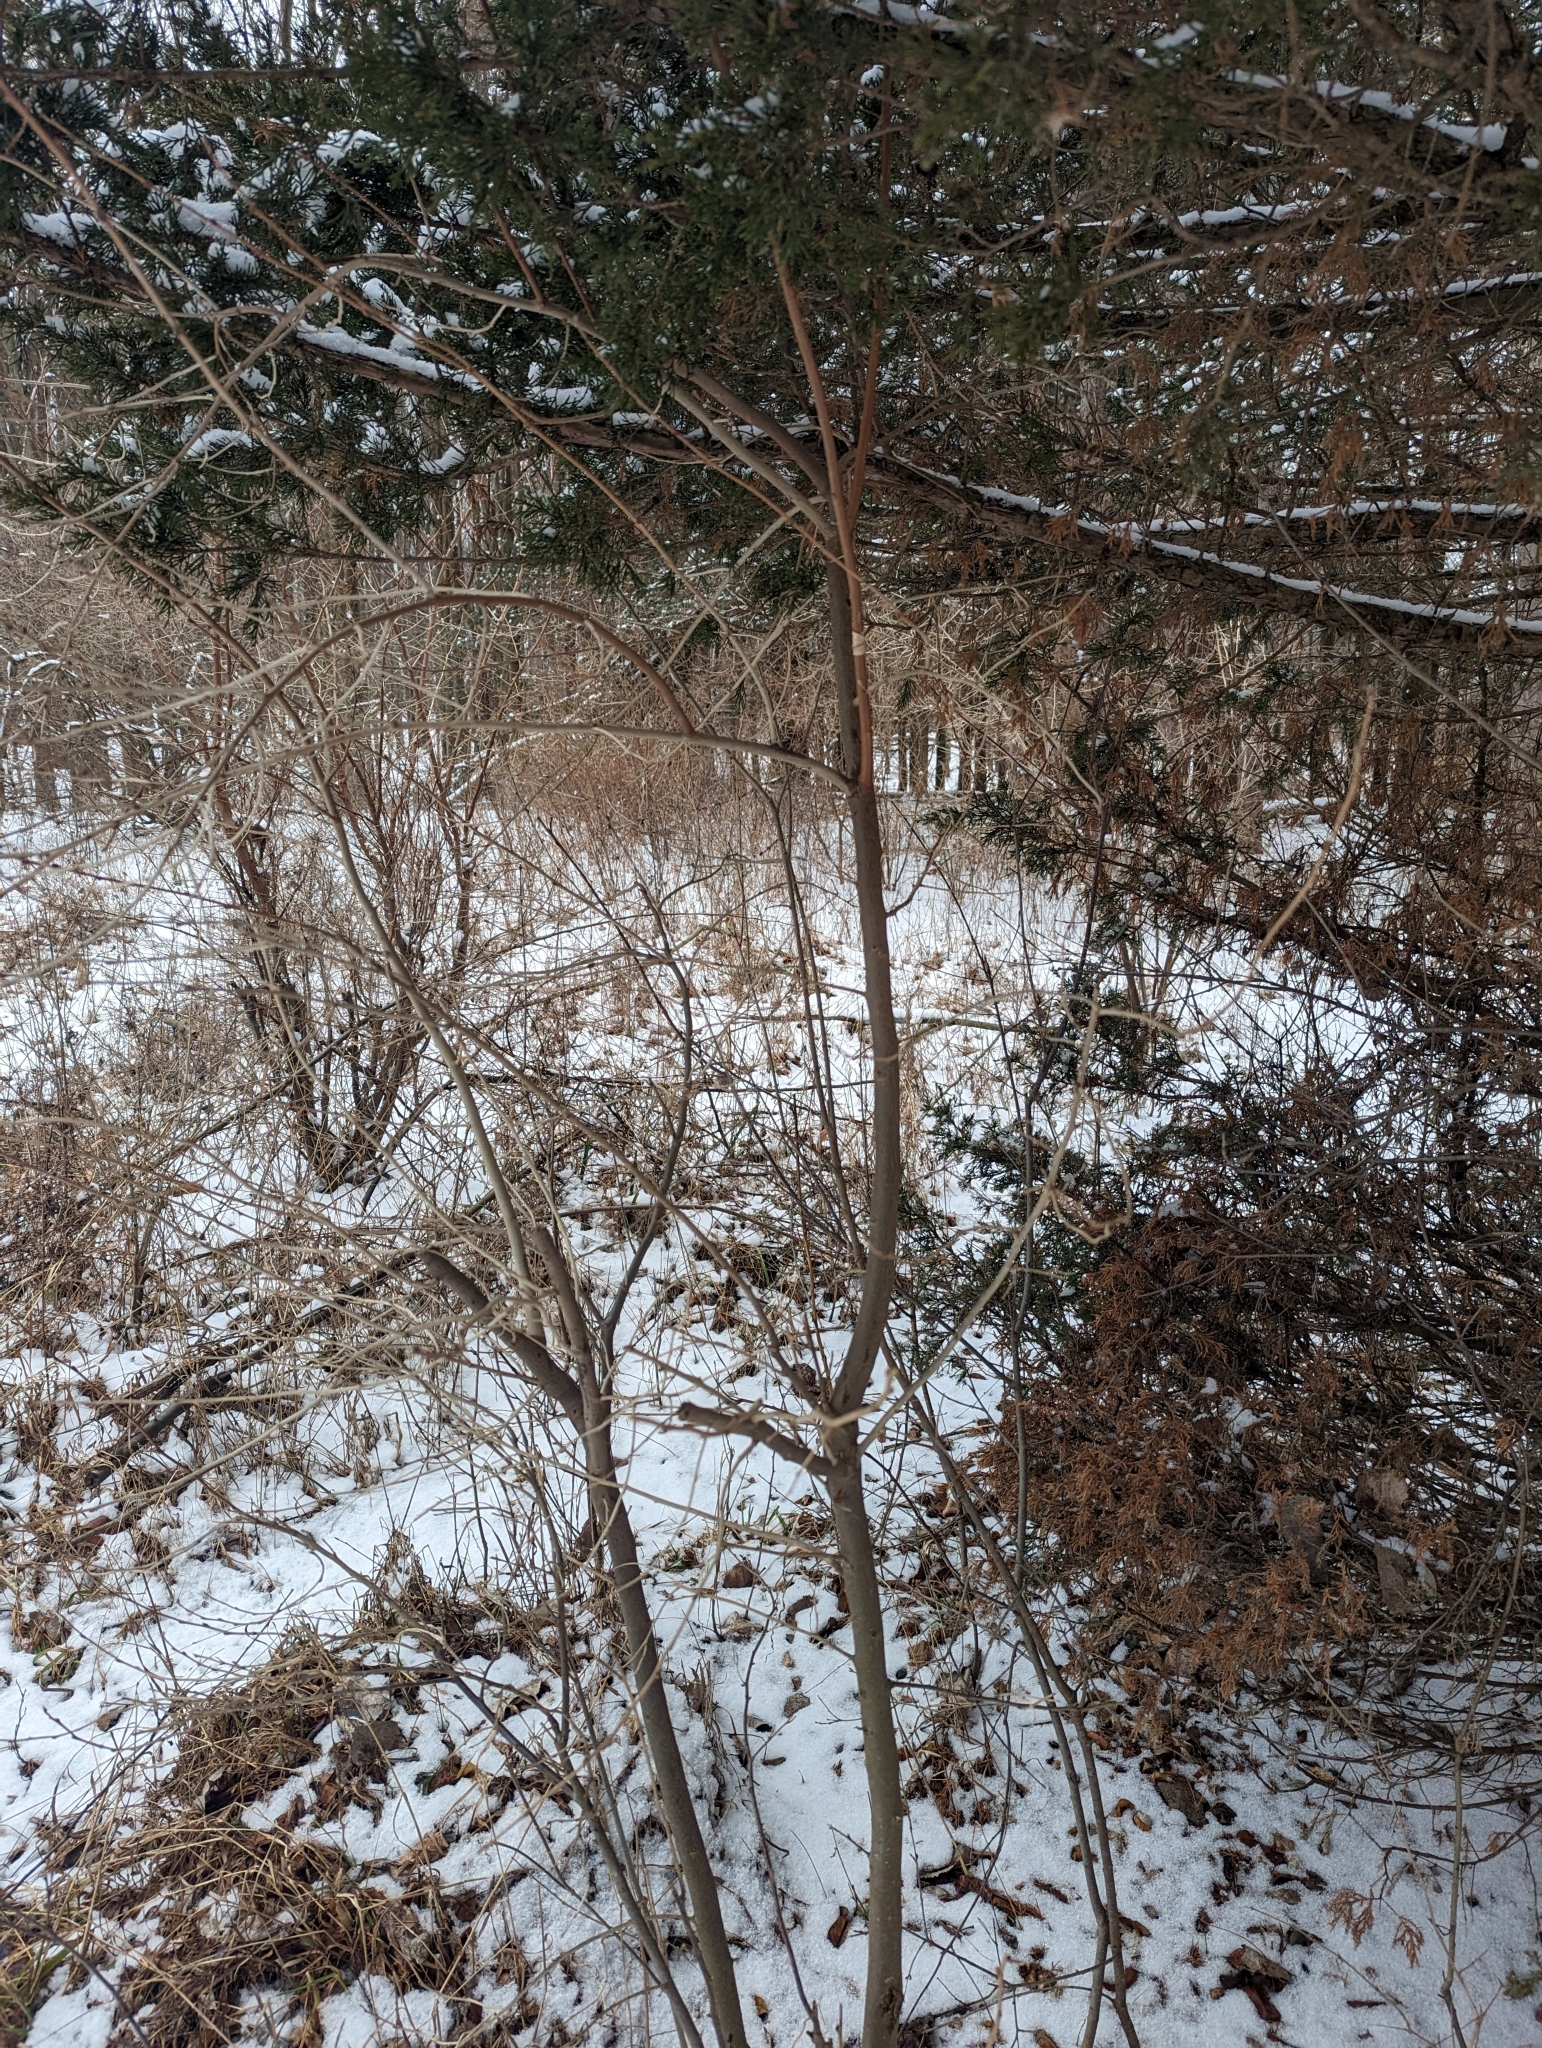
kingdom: Plantae
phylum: Tracheophyta
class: Magnoliopsida
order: Rosales
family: Elaeagnaceae
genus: Elaeagnus
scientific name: Elaeagnus umbellata
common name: Autumn olive
